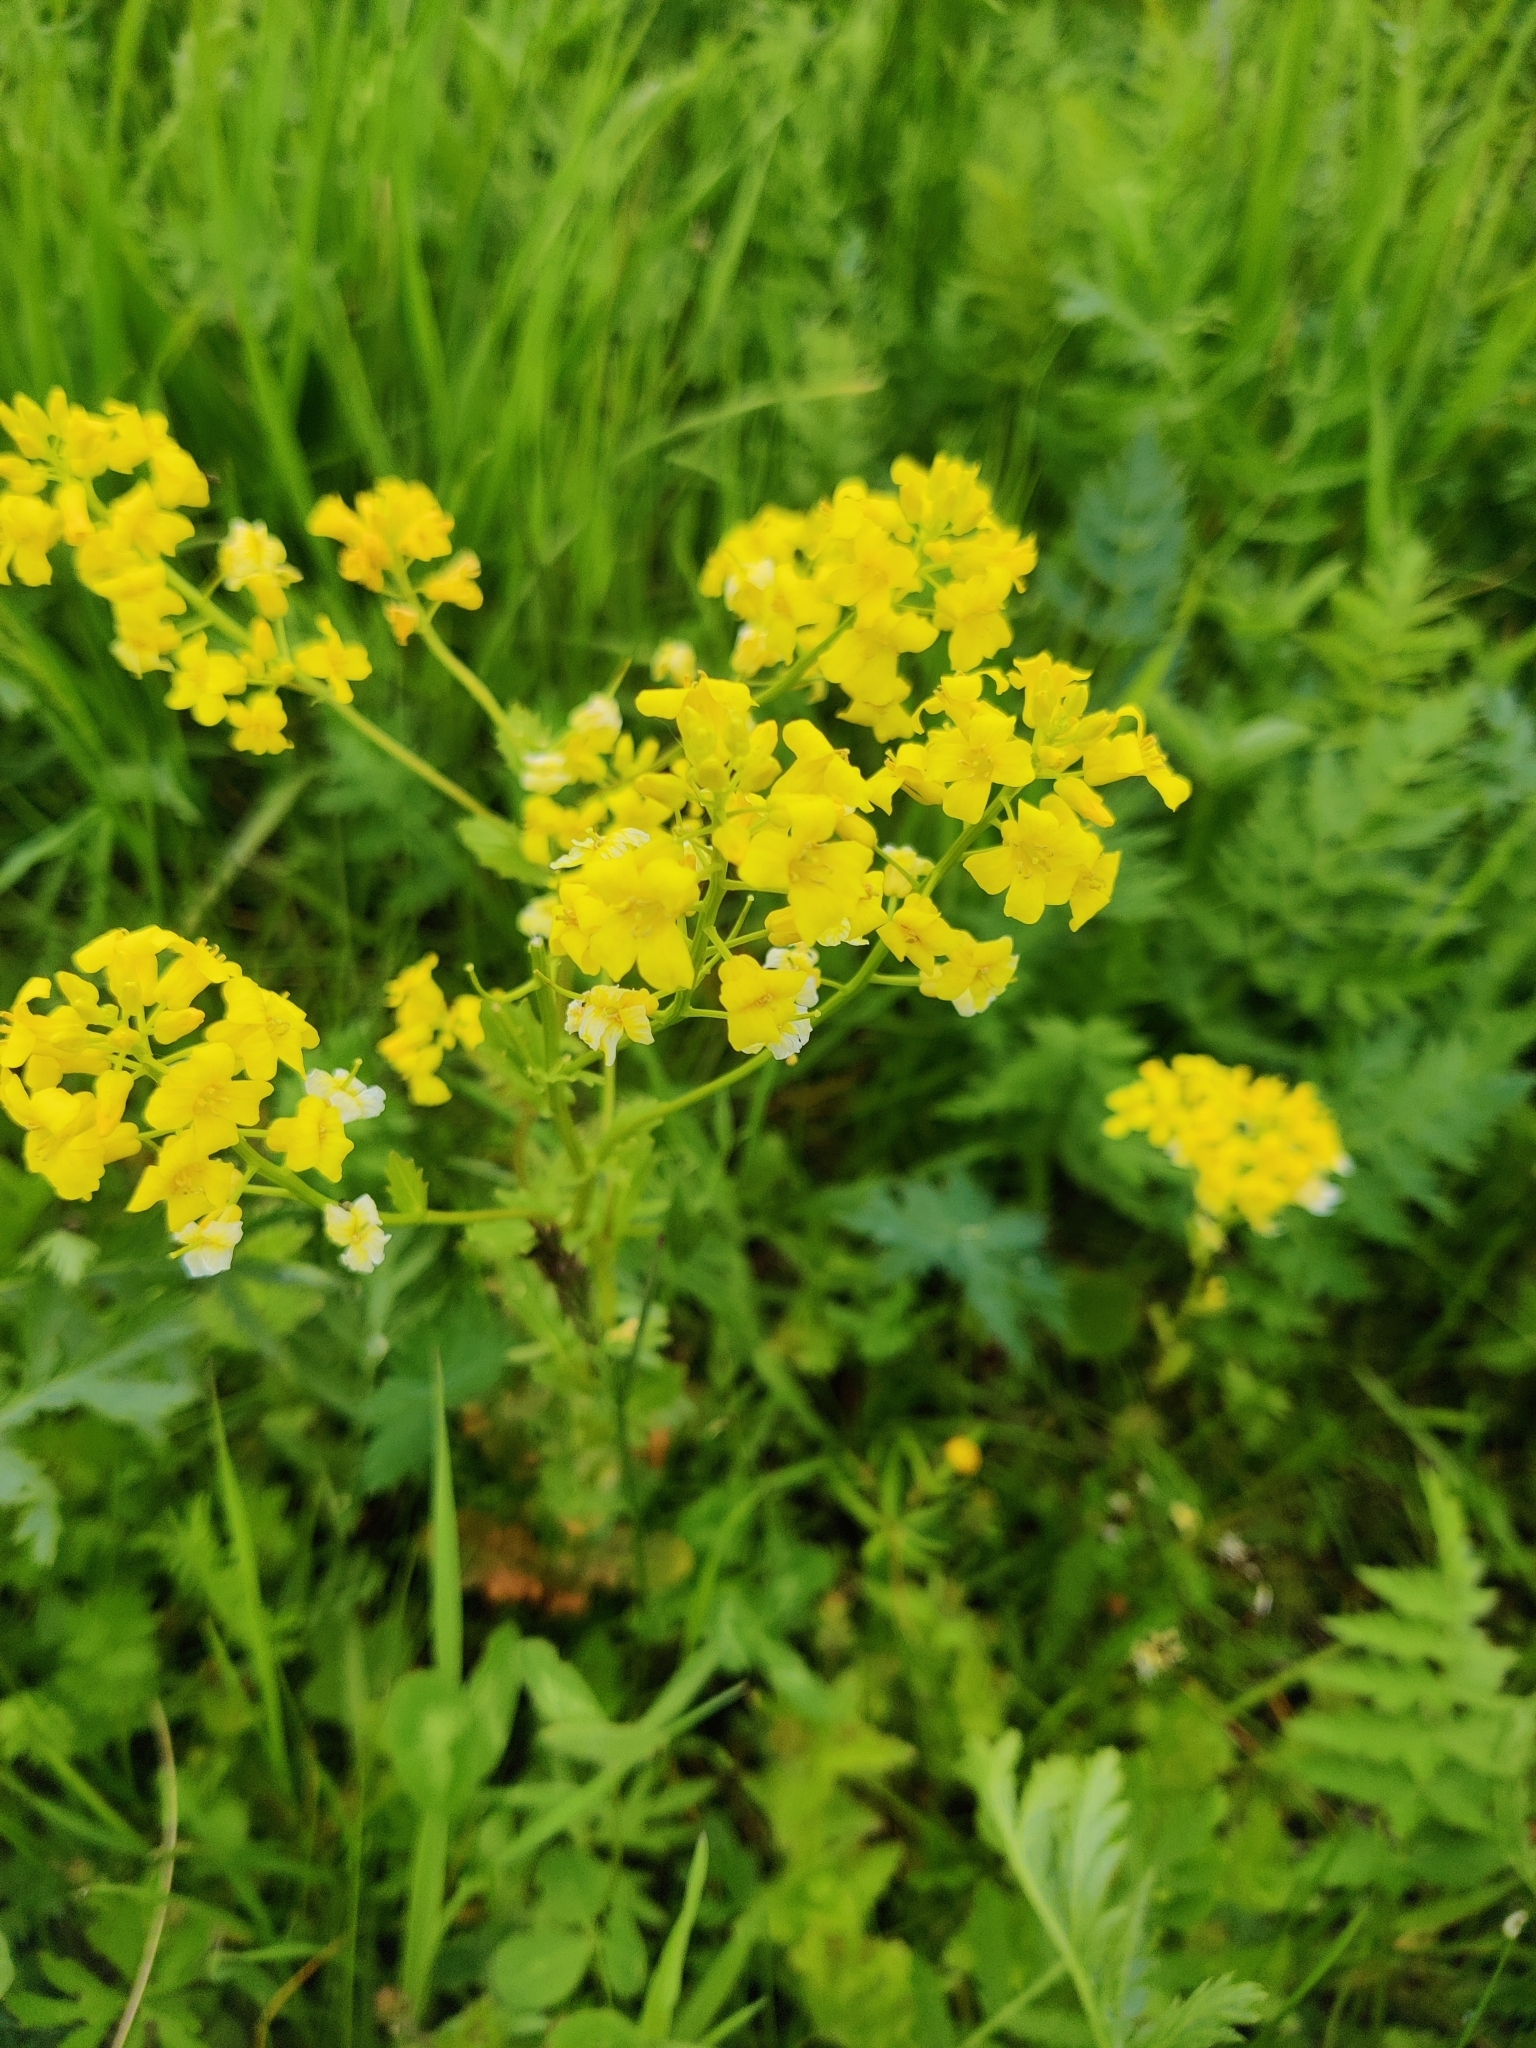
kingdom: Plantae
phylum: Tracheophyta
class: Magnoliopsida
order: Brassicales
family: Brassicaceae
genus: Barbarea
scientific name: Barbarea vulgaris
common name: Cressy-greens
